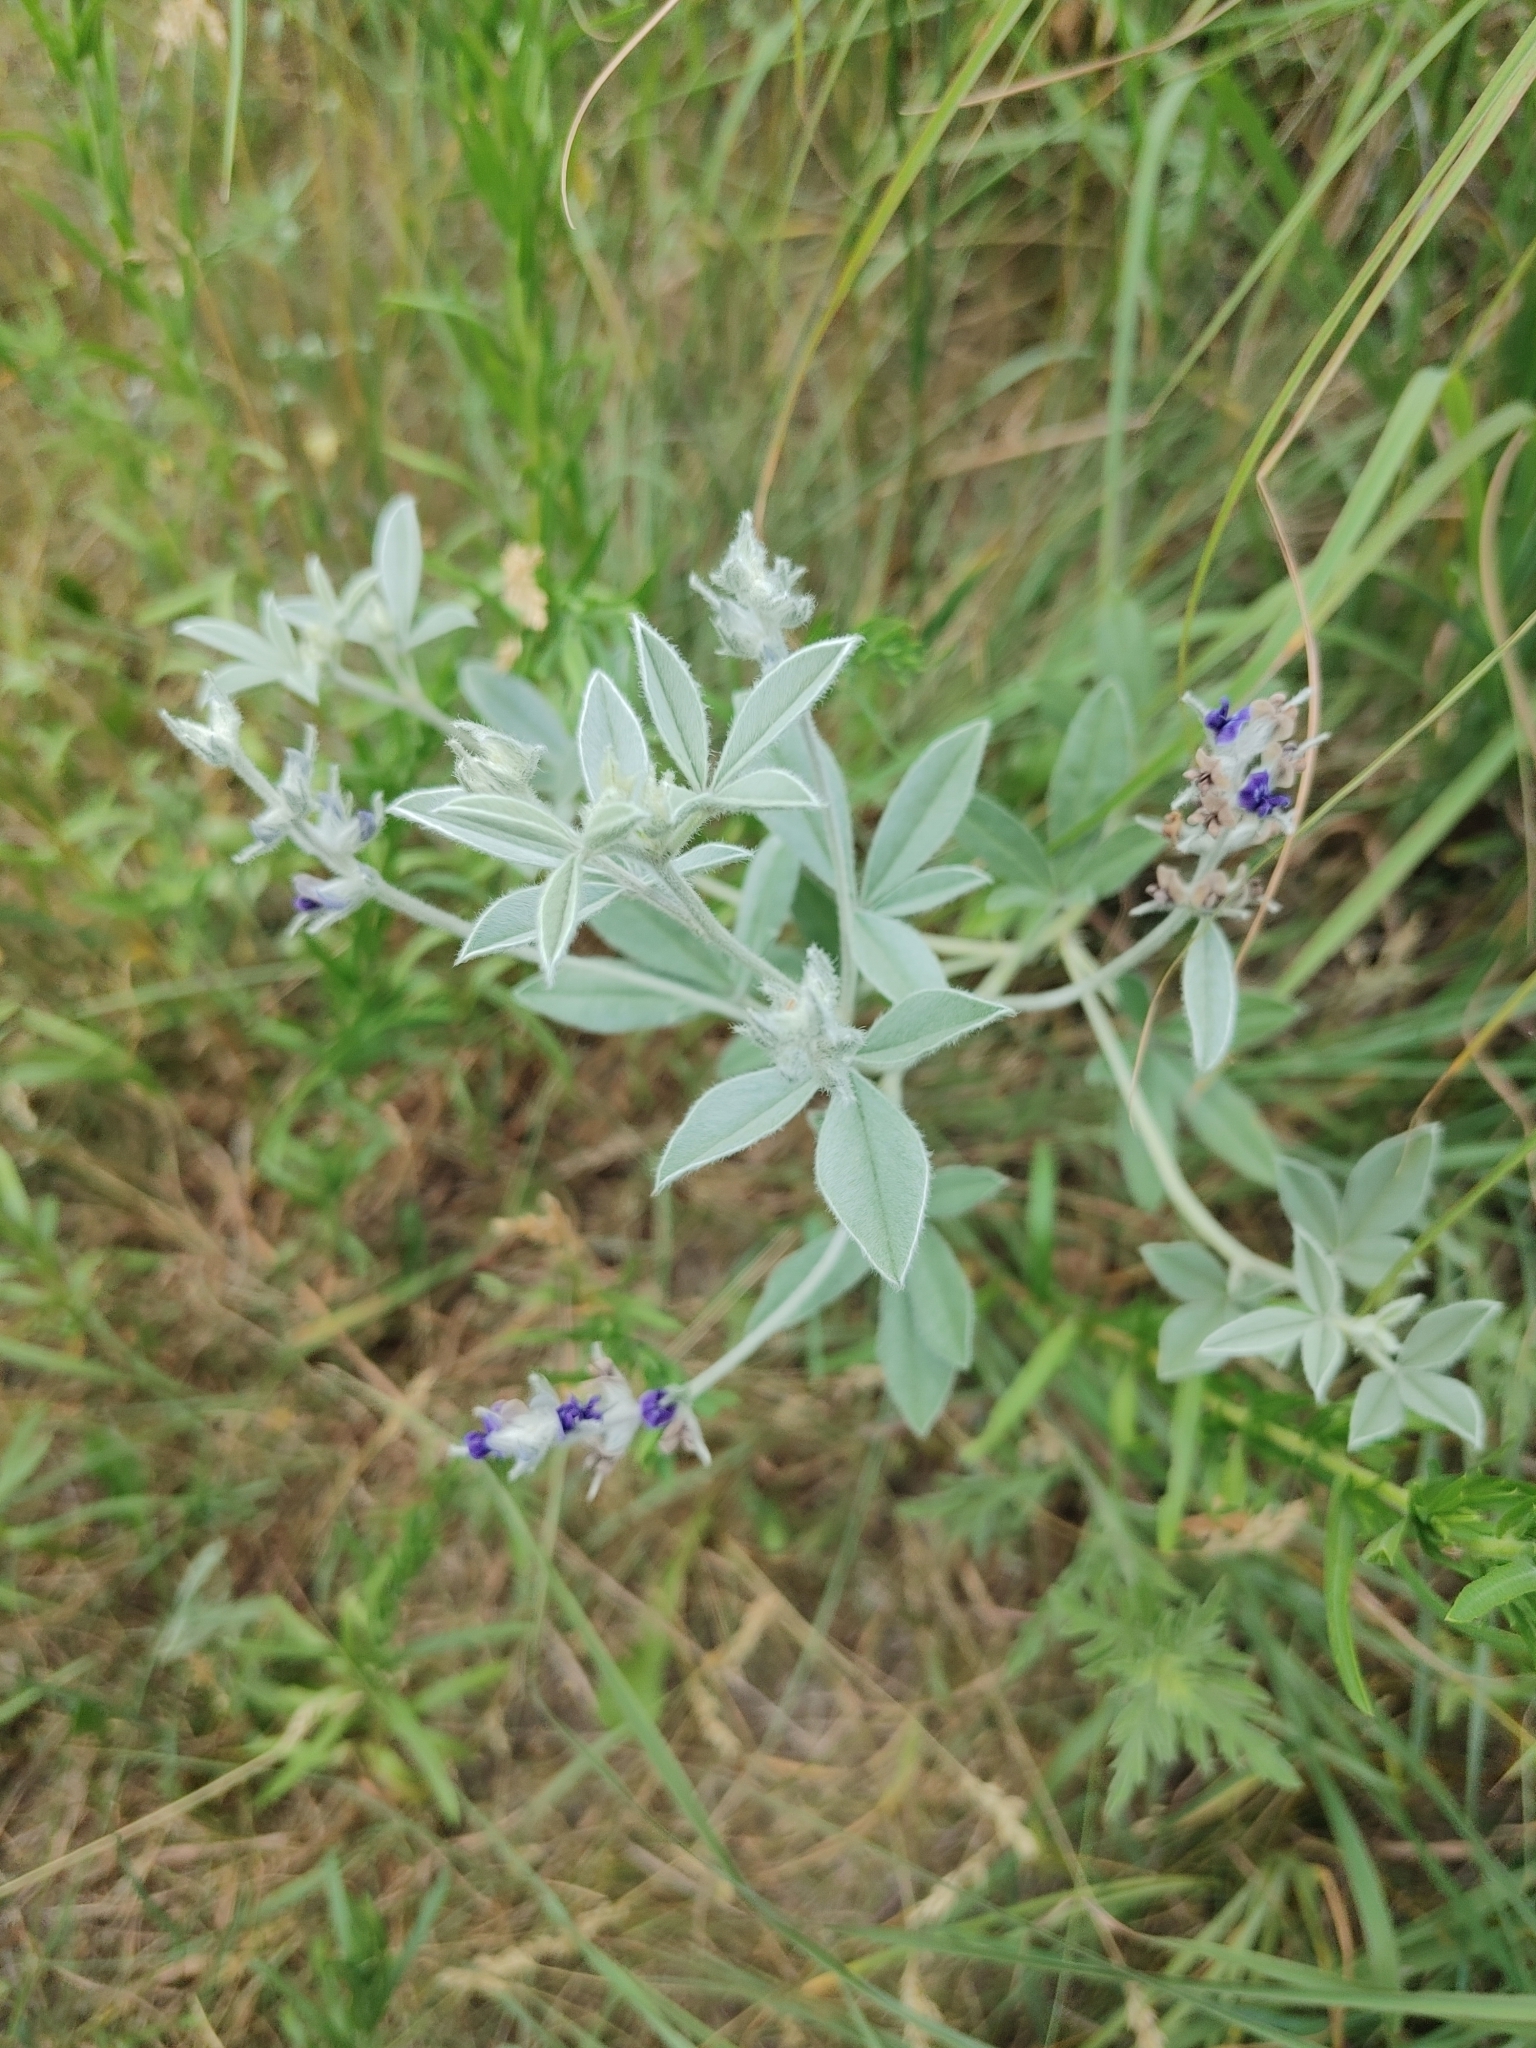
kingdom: Plantae
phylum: Tracheophyta
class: Magnoliopsida
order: Fabales
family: Fabaceae
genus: Pediomelum
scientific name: Pediomelum argophyllum
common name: Silver-leaved indian breadroot
